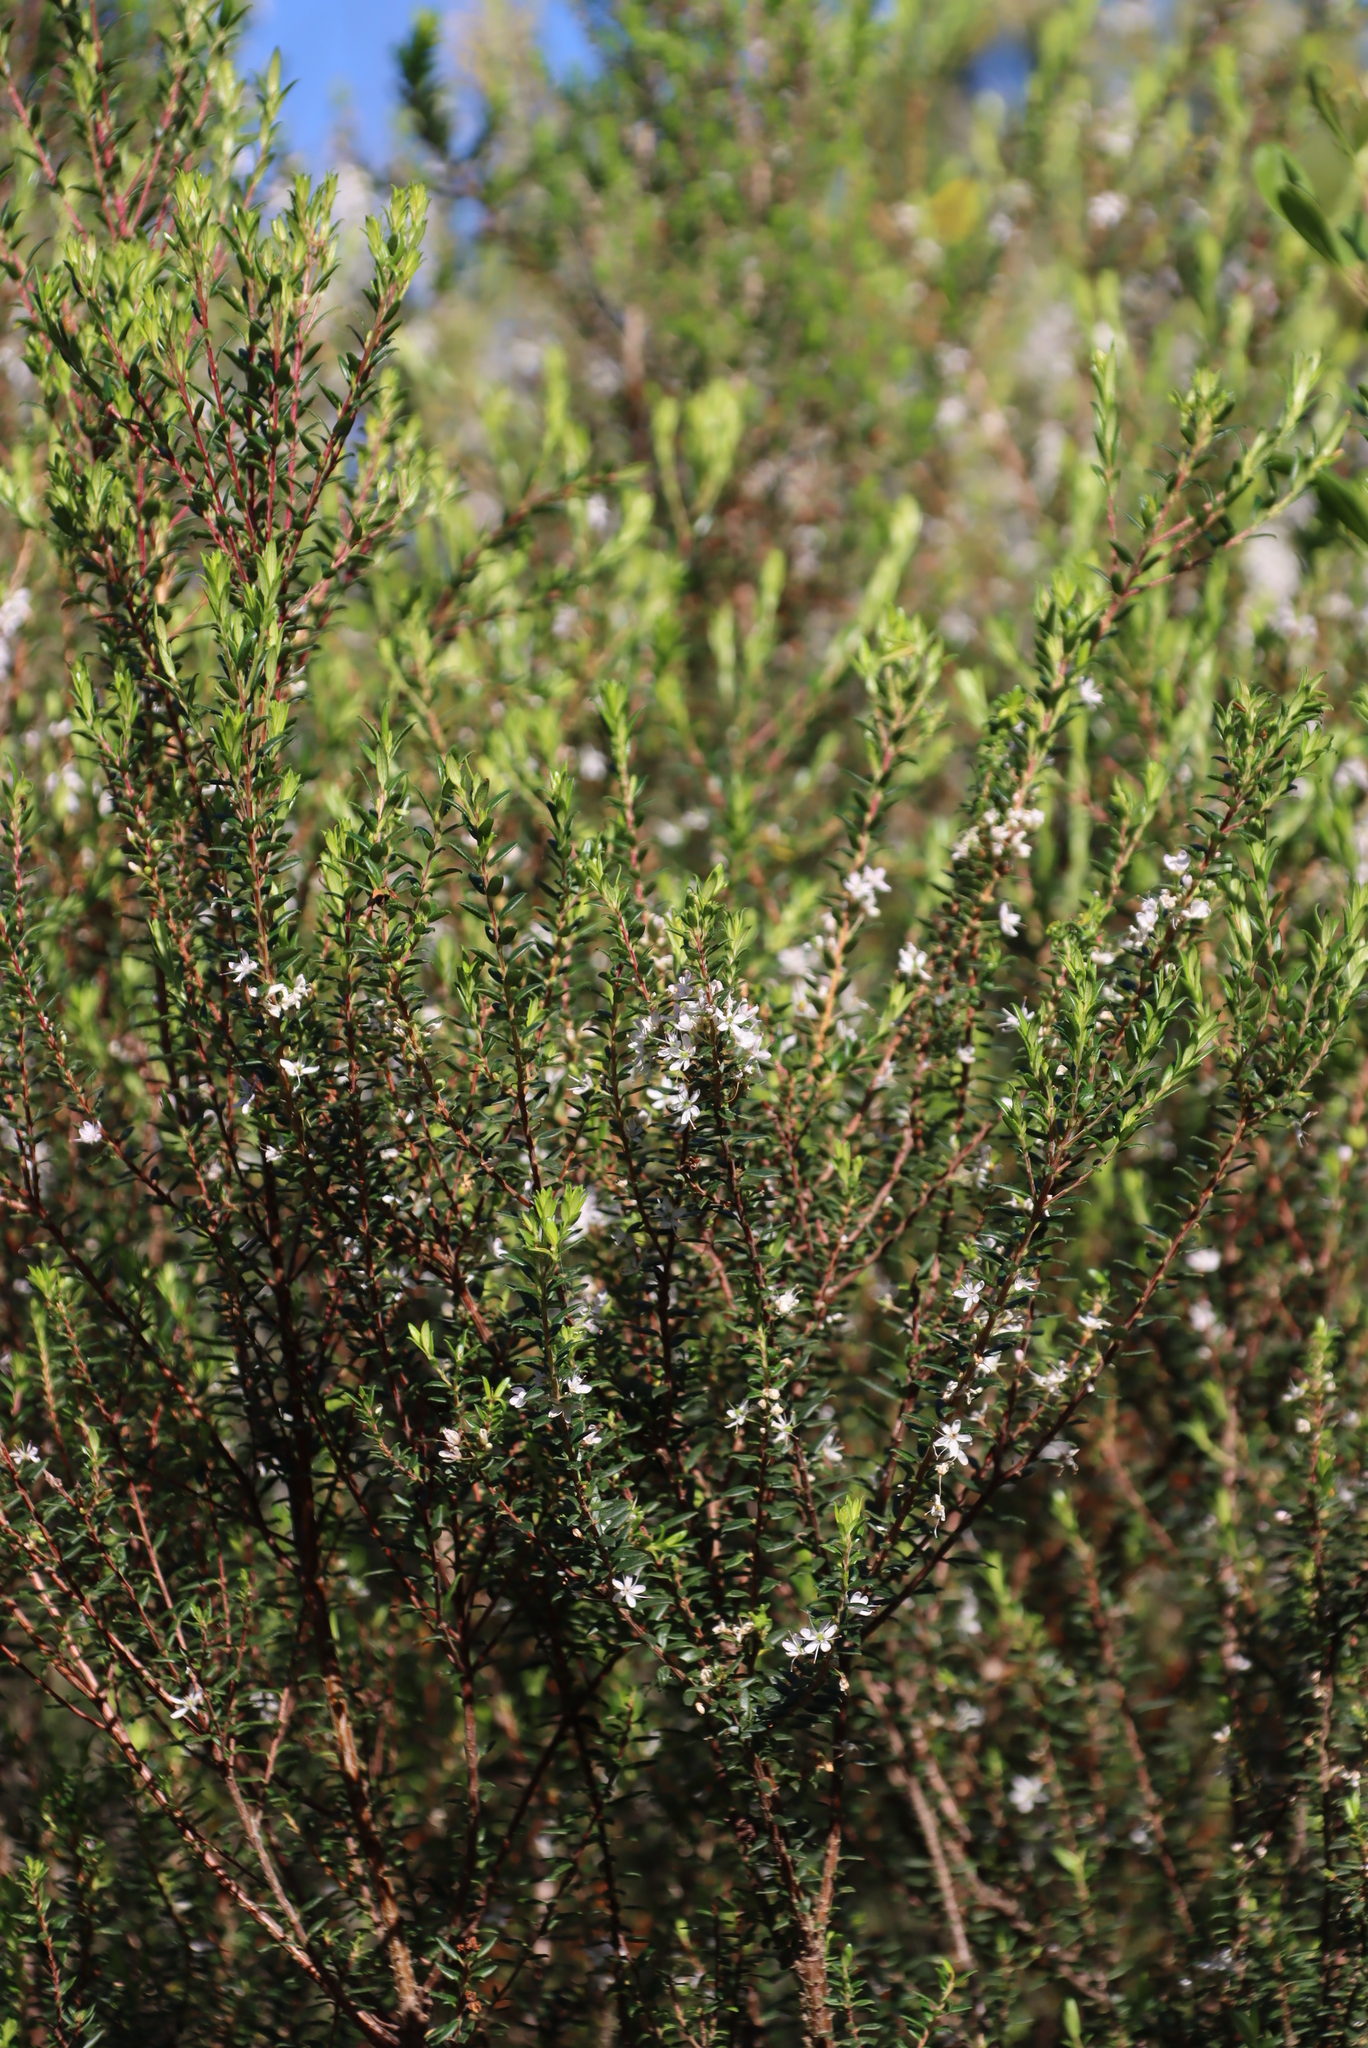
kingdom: Plantae
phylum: Tracheophyta
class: Magnoliopsida
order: Sapindales
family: Rutaceae
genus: Agathosma
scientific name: Agathosma ovata
